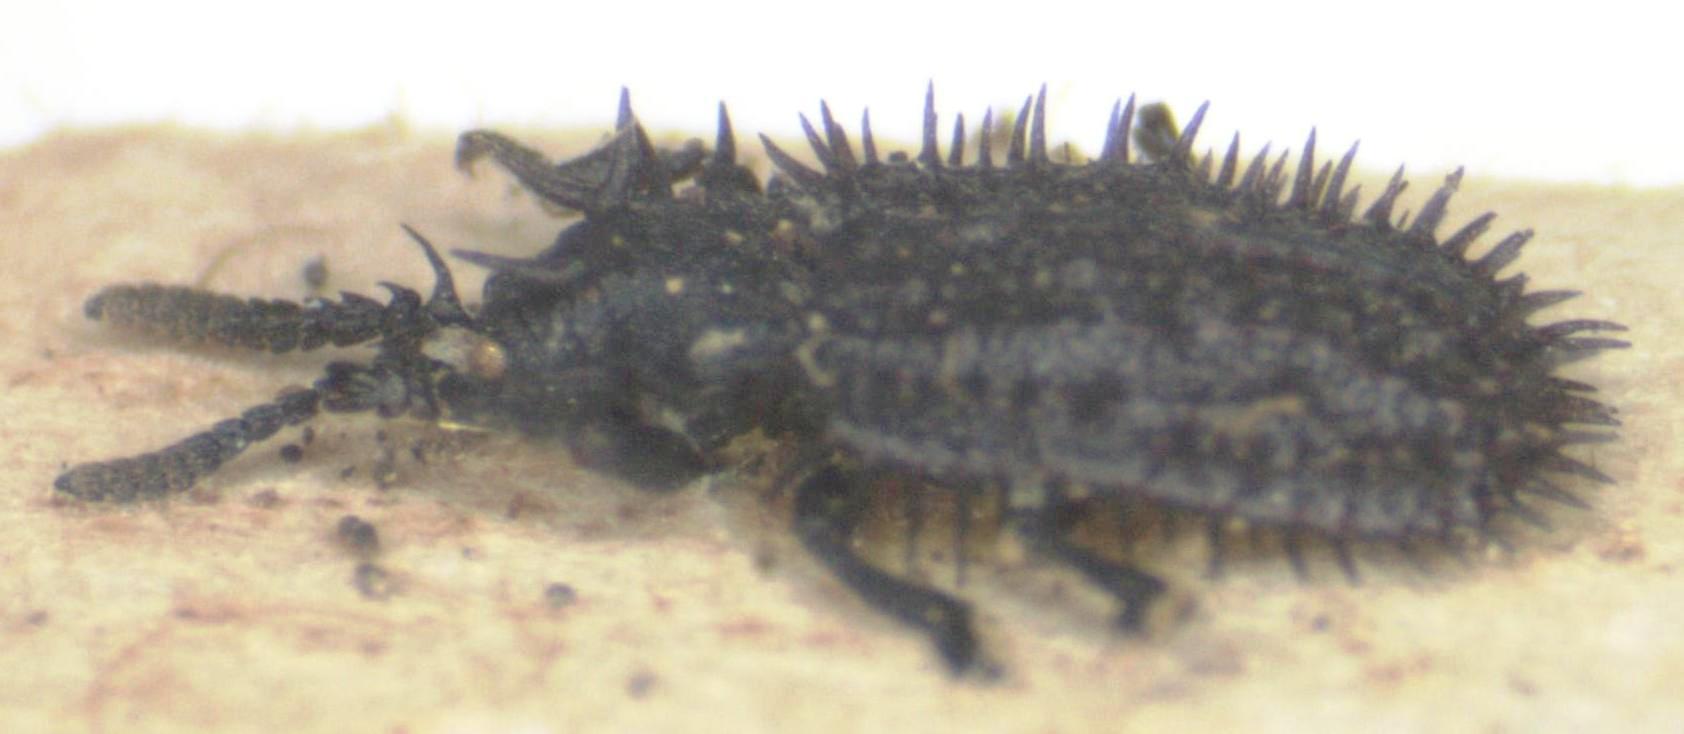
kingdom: Animalia
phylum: Arthropoda
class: Insecta
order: Coleoptera
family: Chrysomelidae
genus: Hispa
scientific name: Hispa atra
